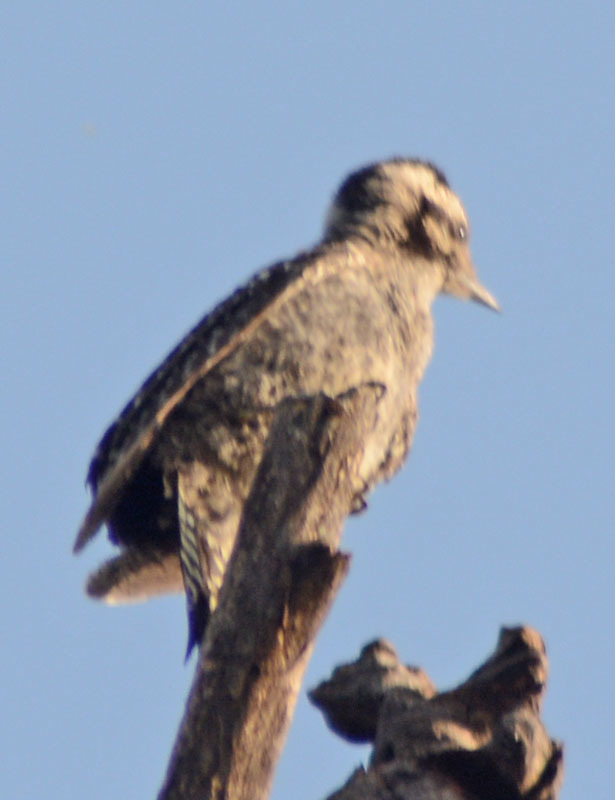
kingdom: Animalia
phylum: Chordata
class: Aves
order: Piciformes
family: Picidae
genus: Dryobates
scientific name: Dryobates scalaris
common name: Ladder-backed woodpecker
